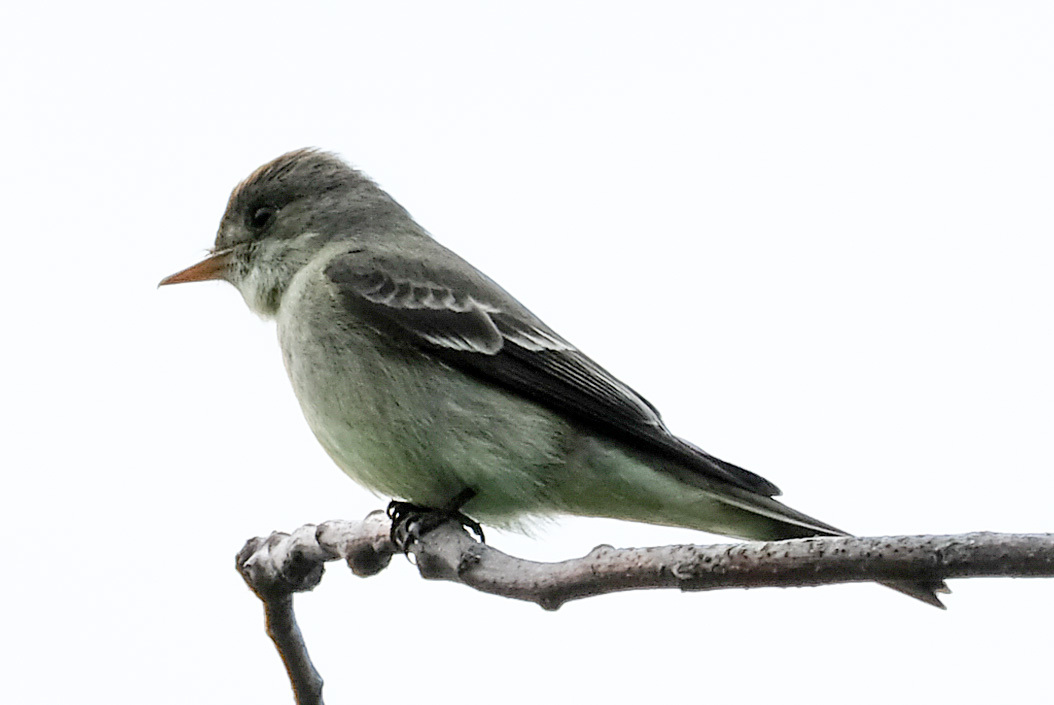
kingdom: Animalia
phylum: Chordata
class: Aves
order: Passeriformes
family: Tyrannidae
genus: Contopus
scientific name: Contopus virens
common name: Eastern wood-pewee
